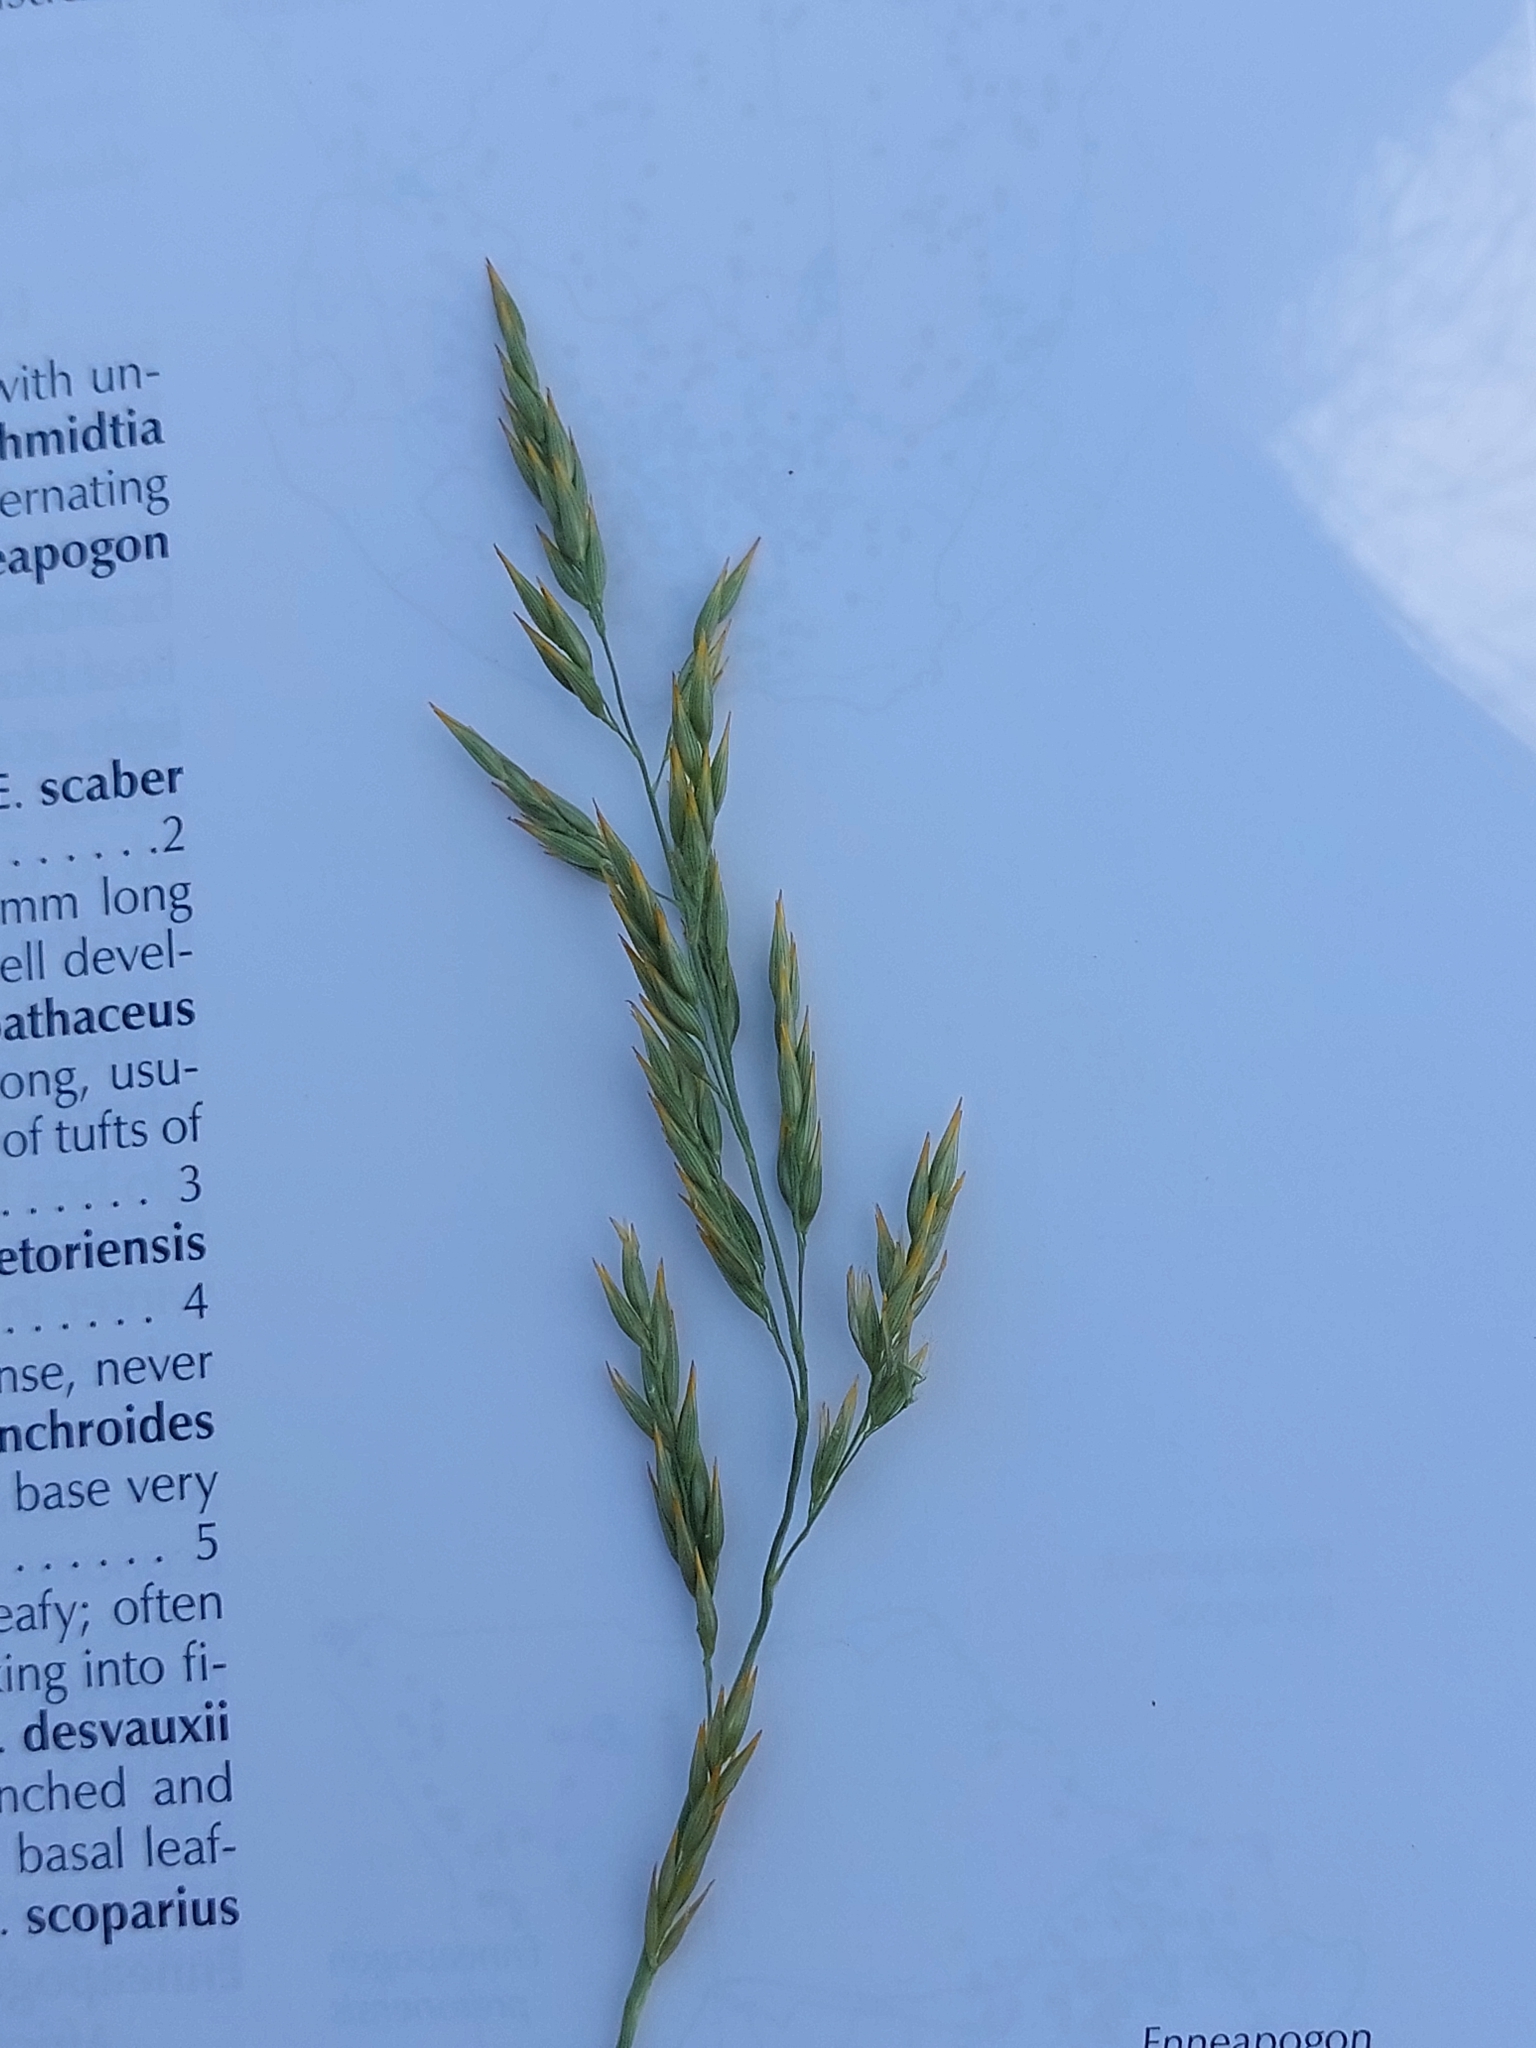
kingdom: Plantae
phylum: Tracheophyta
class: Liliopsida
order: Poales
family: Poaceae
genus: Enneapogon
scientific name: Enneapogon pretoriensis
